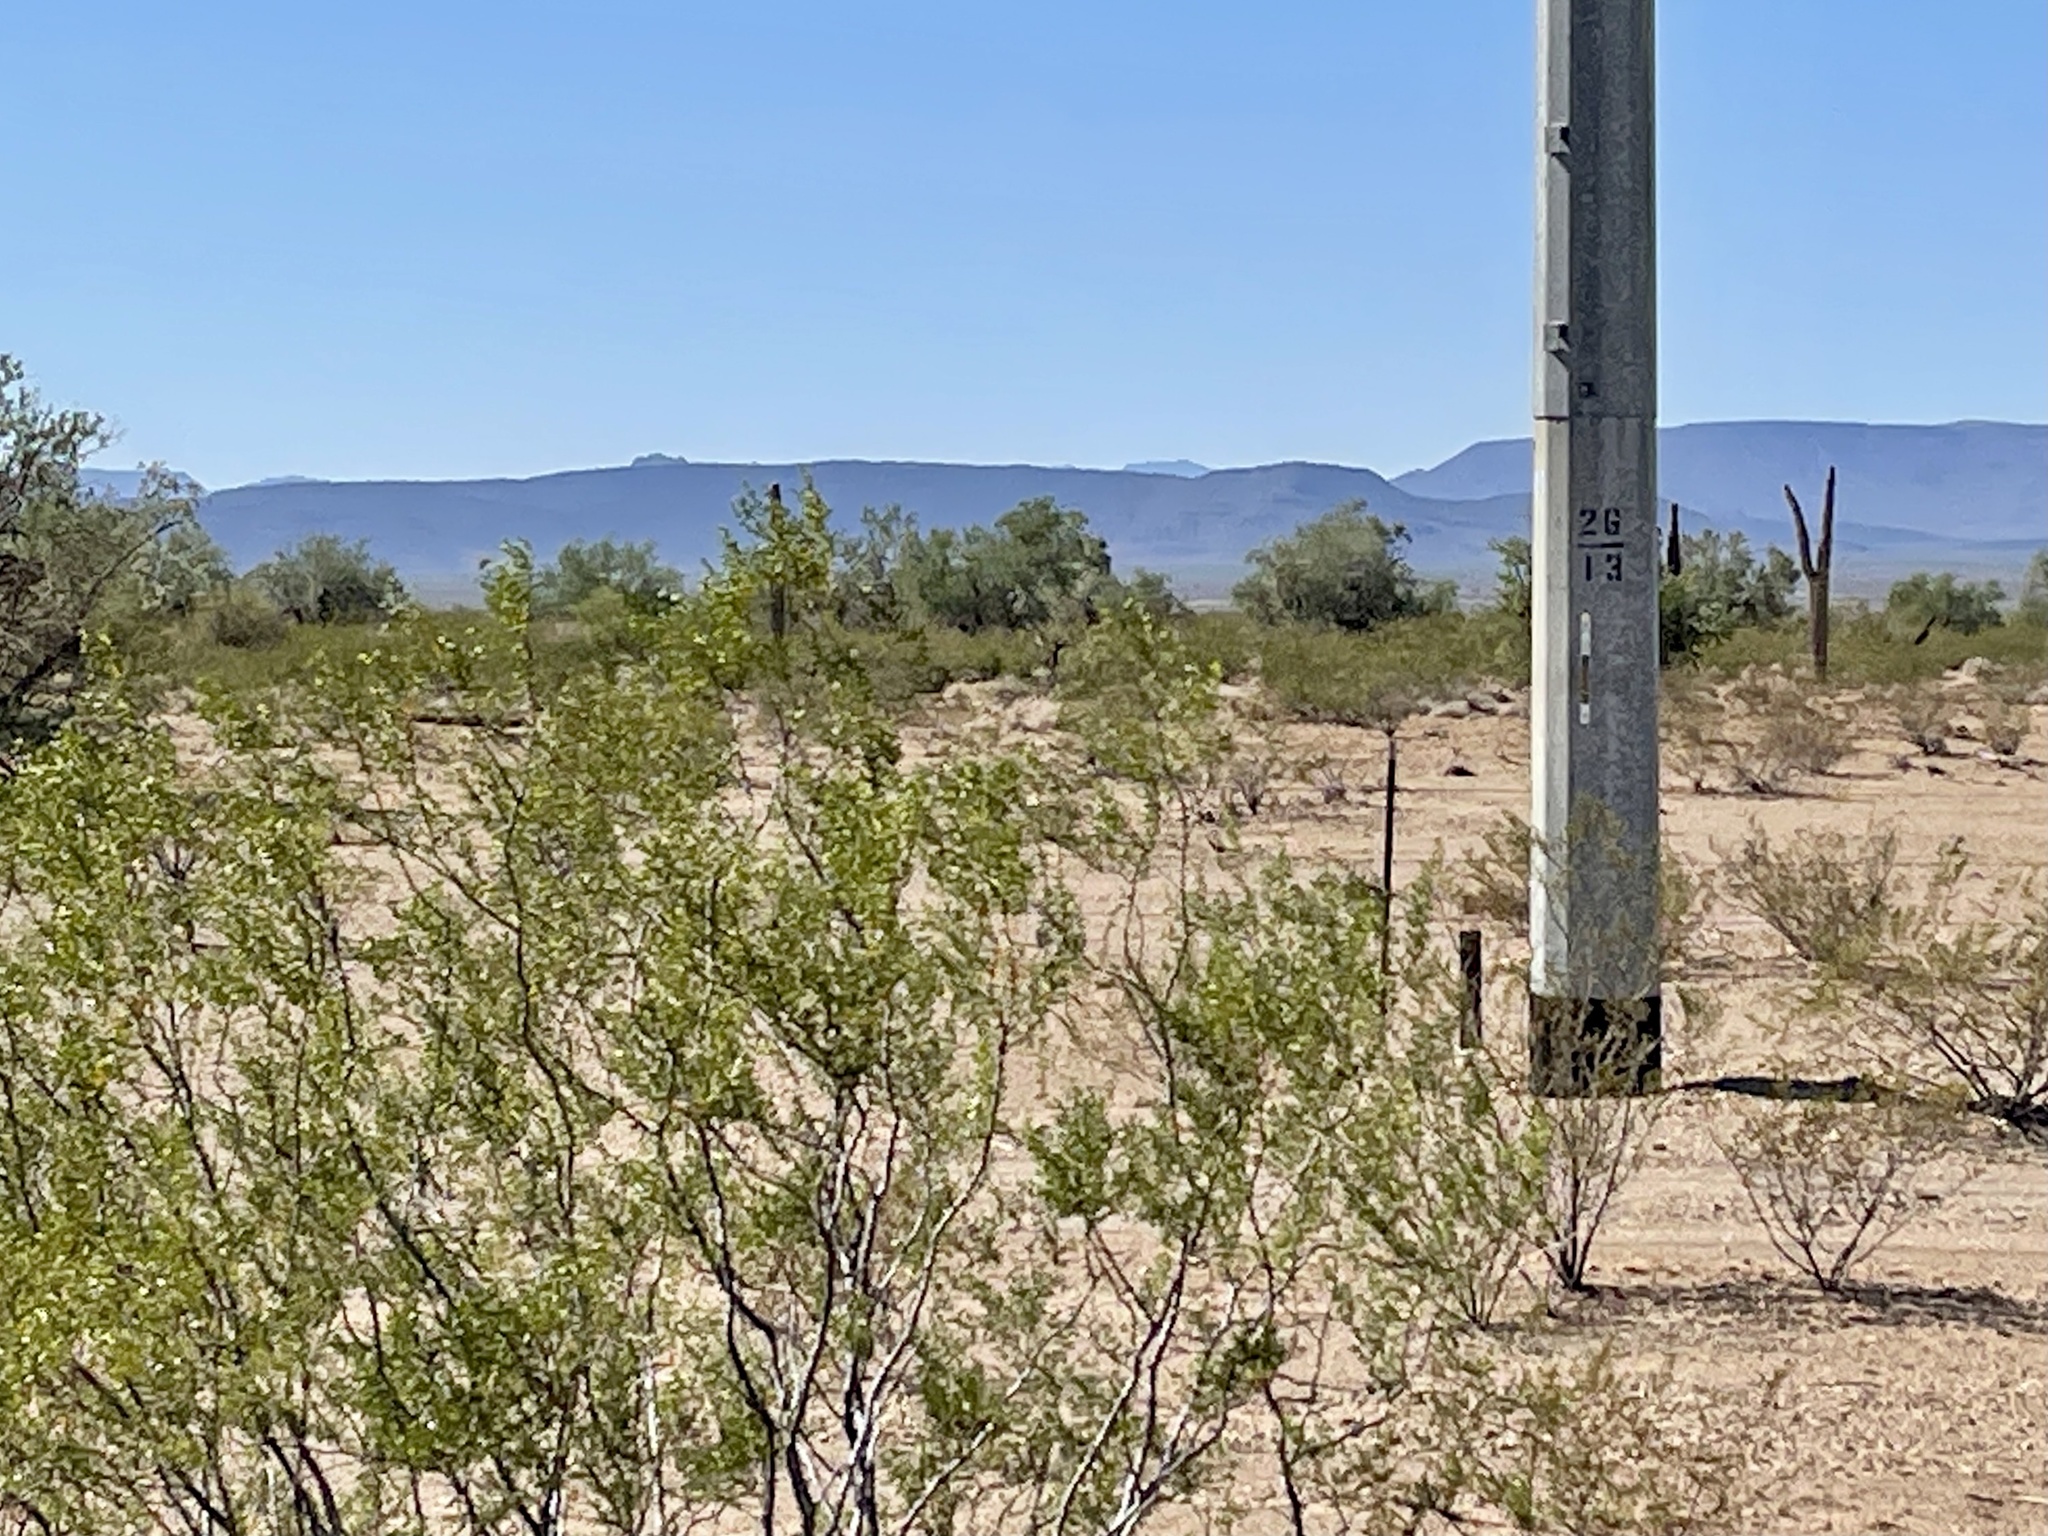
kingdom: Plantae
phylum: Tracheophyta
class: Magnoliopsida
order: Zygophyllales
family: Zygophyllaceae
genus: Larrea
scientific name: Larrea tridentata
